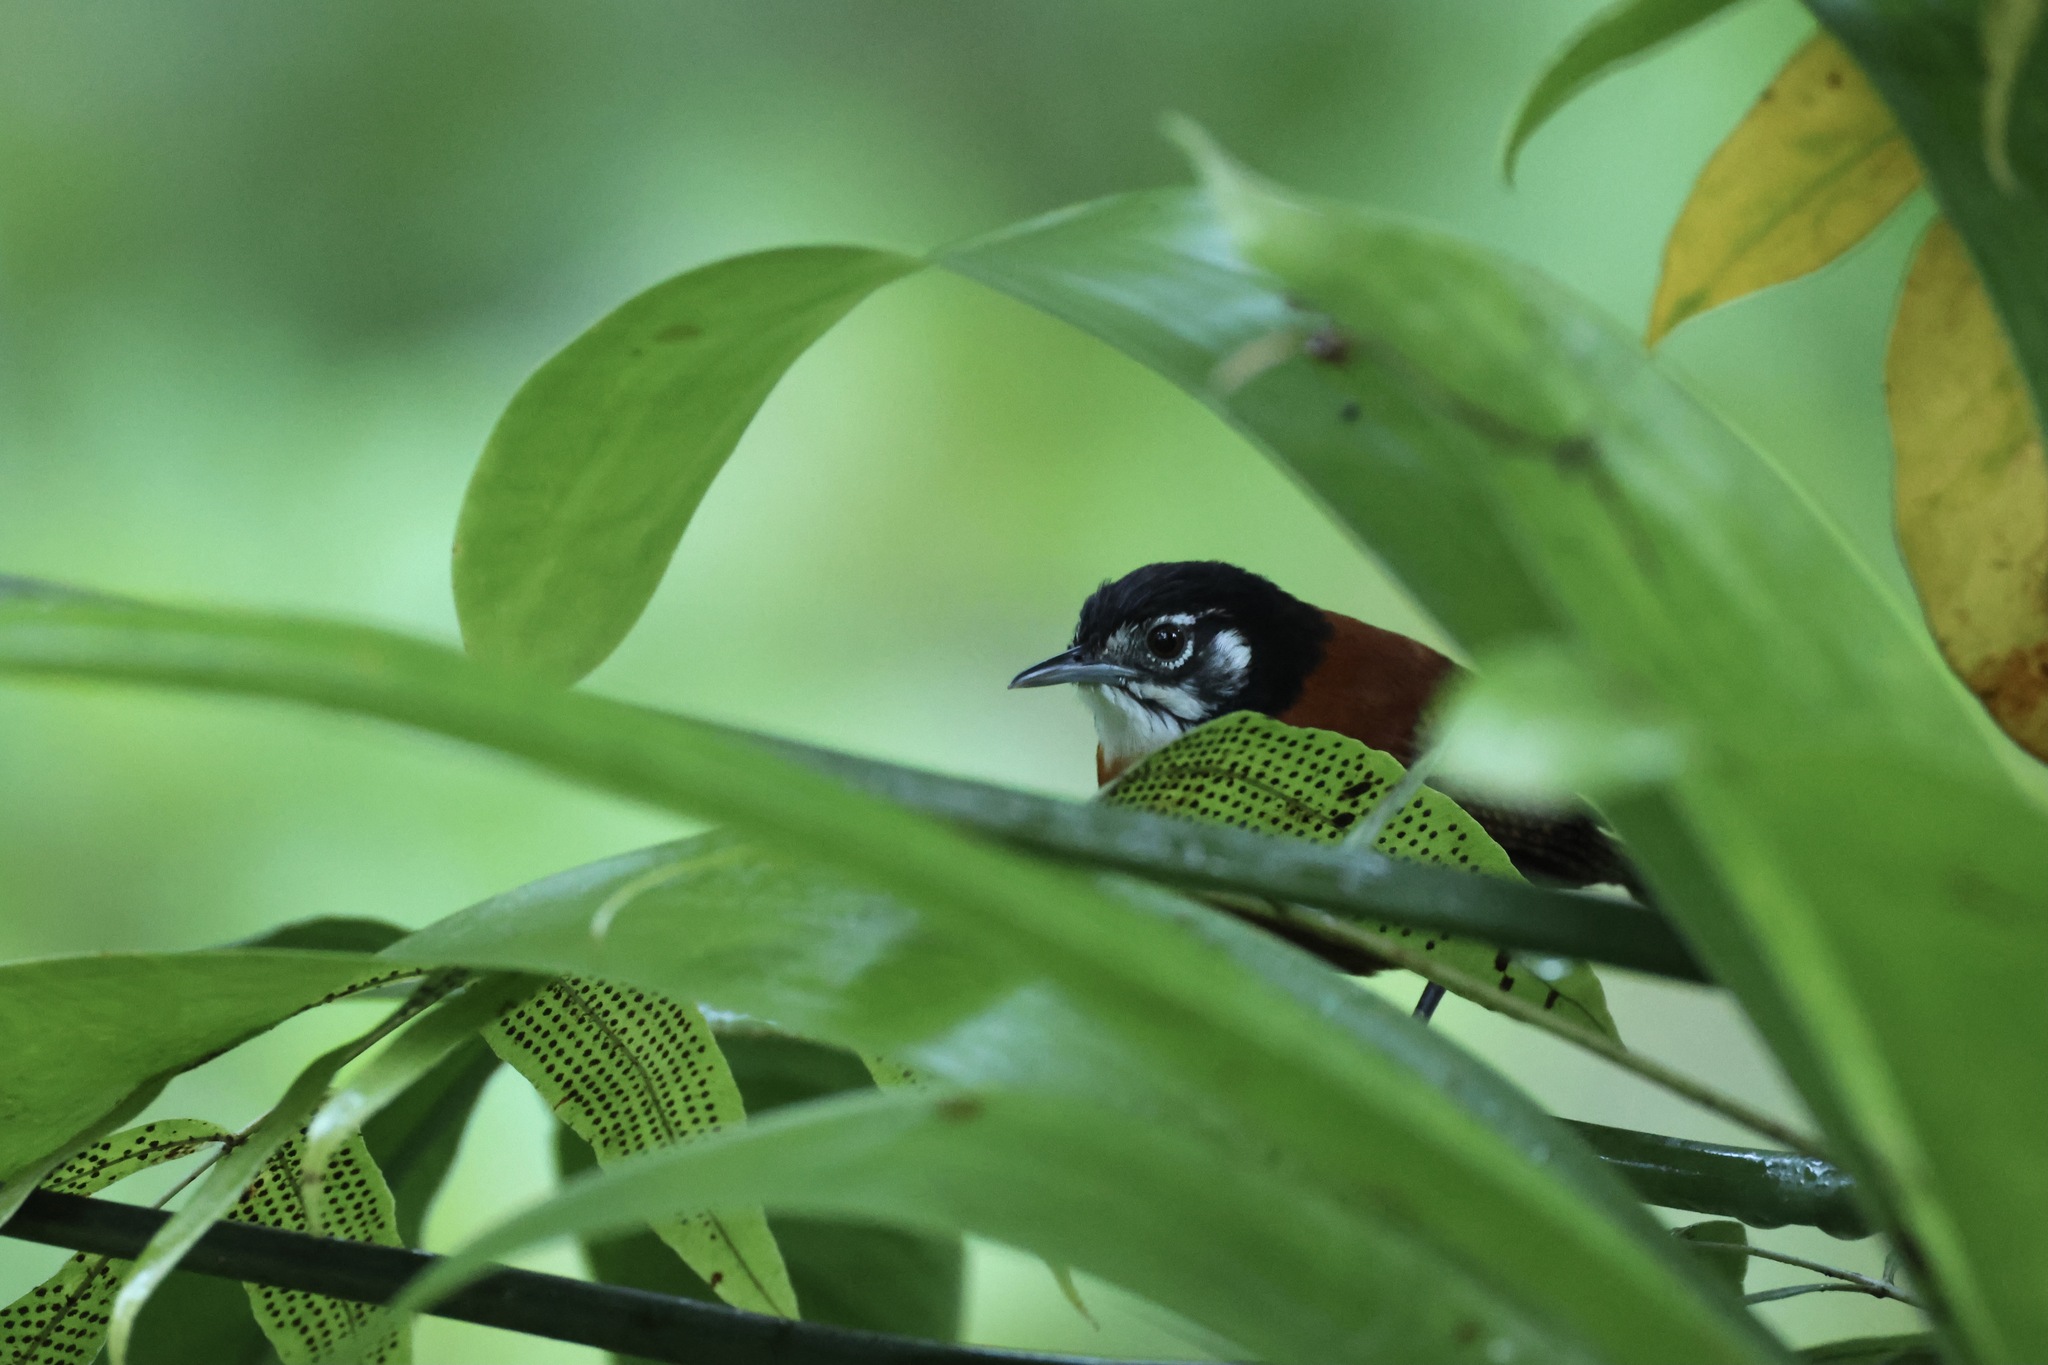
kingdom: Animalia
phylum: Chordata
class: Aves
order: Passeriformes
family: Troglodytidae
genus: Cantorchilus
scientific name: Cantorchilus nigricapillus
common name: Bay wren
